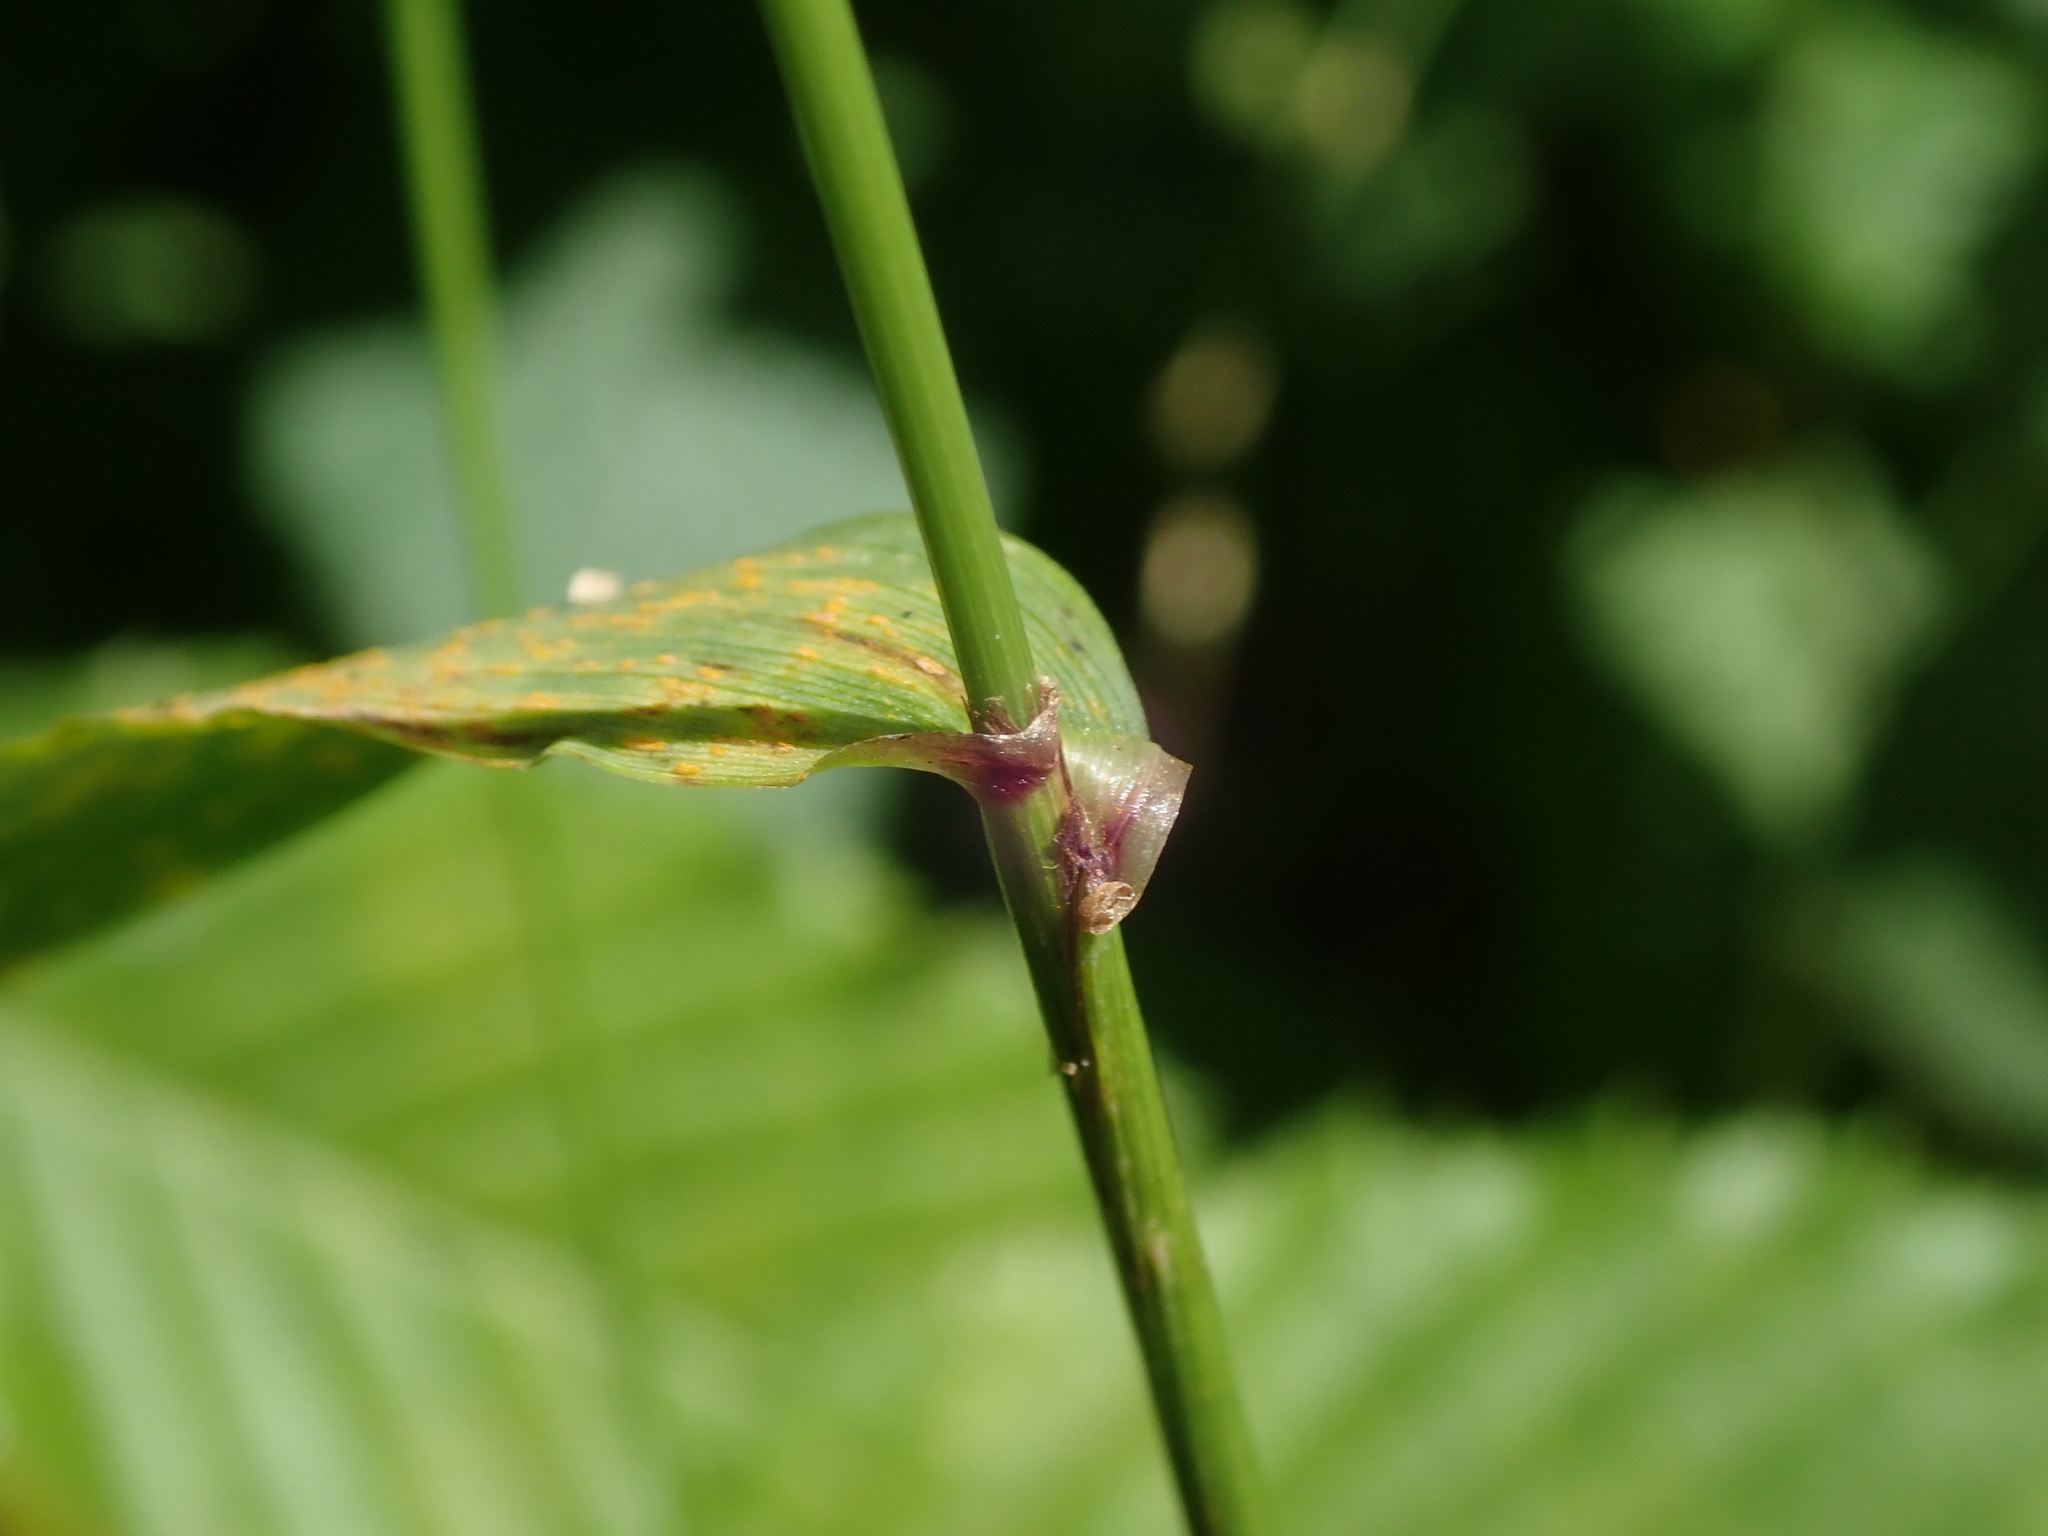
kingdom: Plantae
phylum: Tracheophyta
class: Liliopsida
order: Poales
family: Poaceae
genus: Lolium
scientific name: Lolium giganteum
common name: Giant fescue
